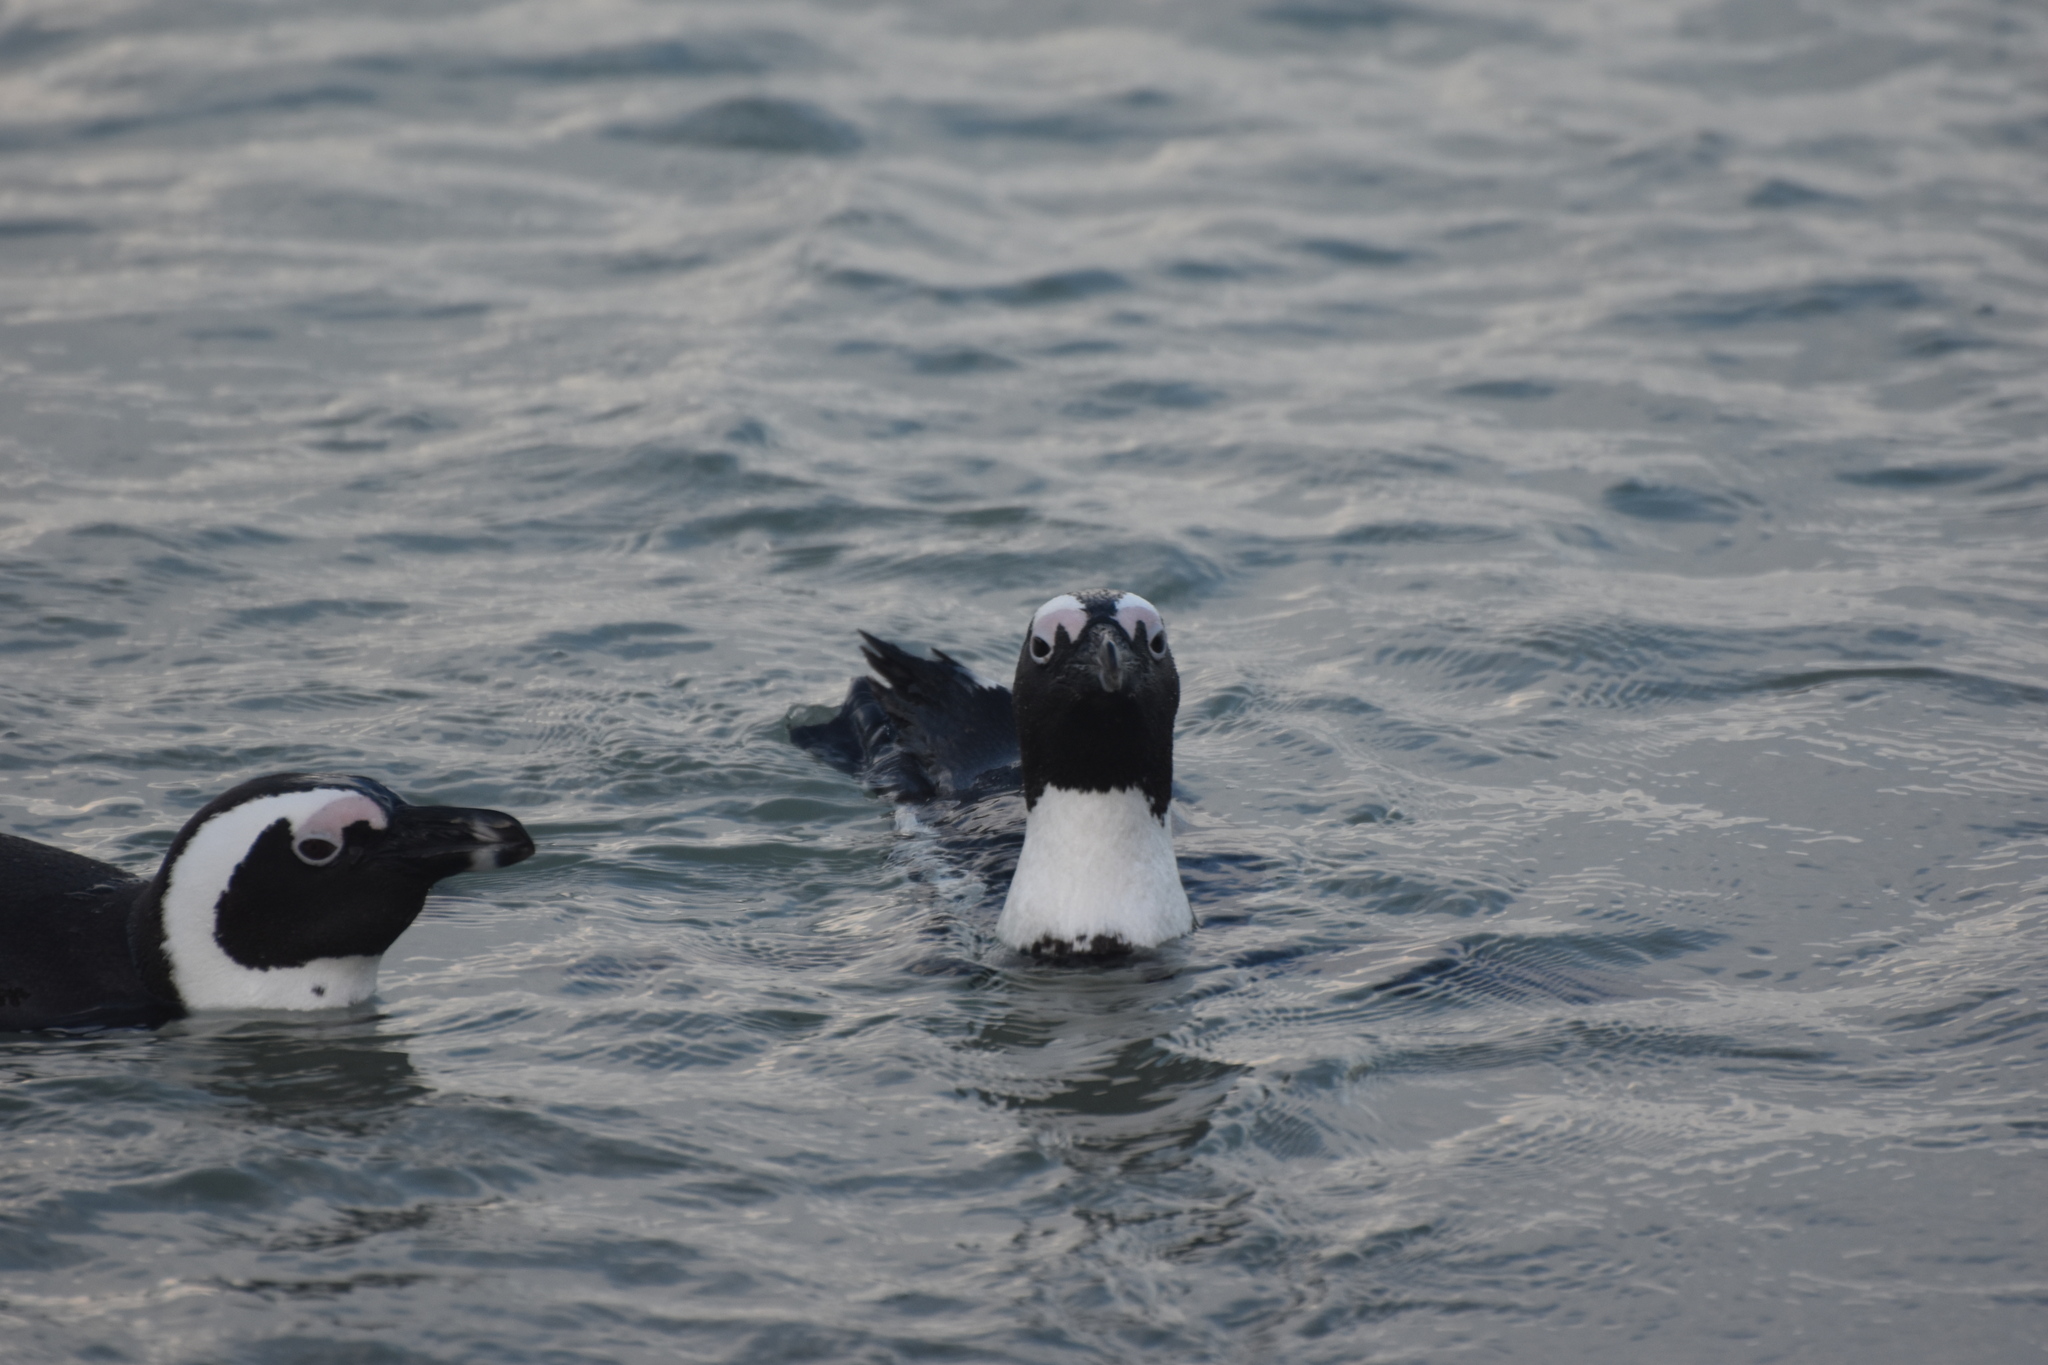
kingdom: Animalia
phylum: Chordata
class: Aves
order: Sphenisciformes
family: Spheniscidae
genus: Spheniscus
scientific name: Spheniscus demersus
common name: African penguin
